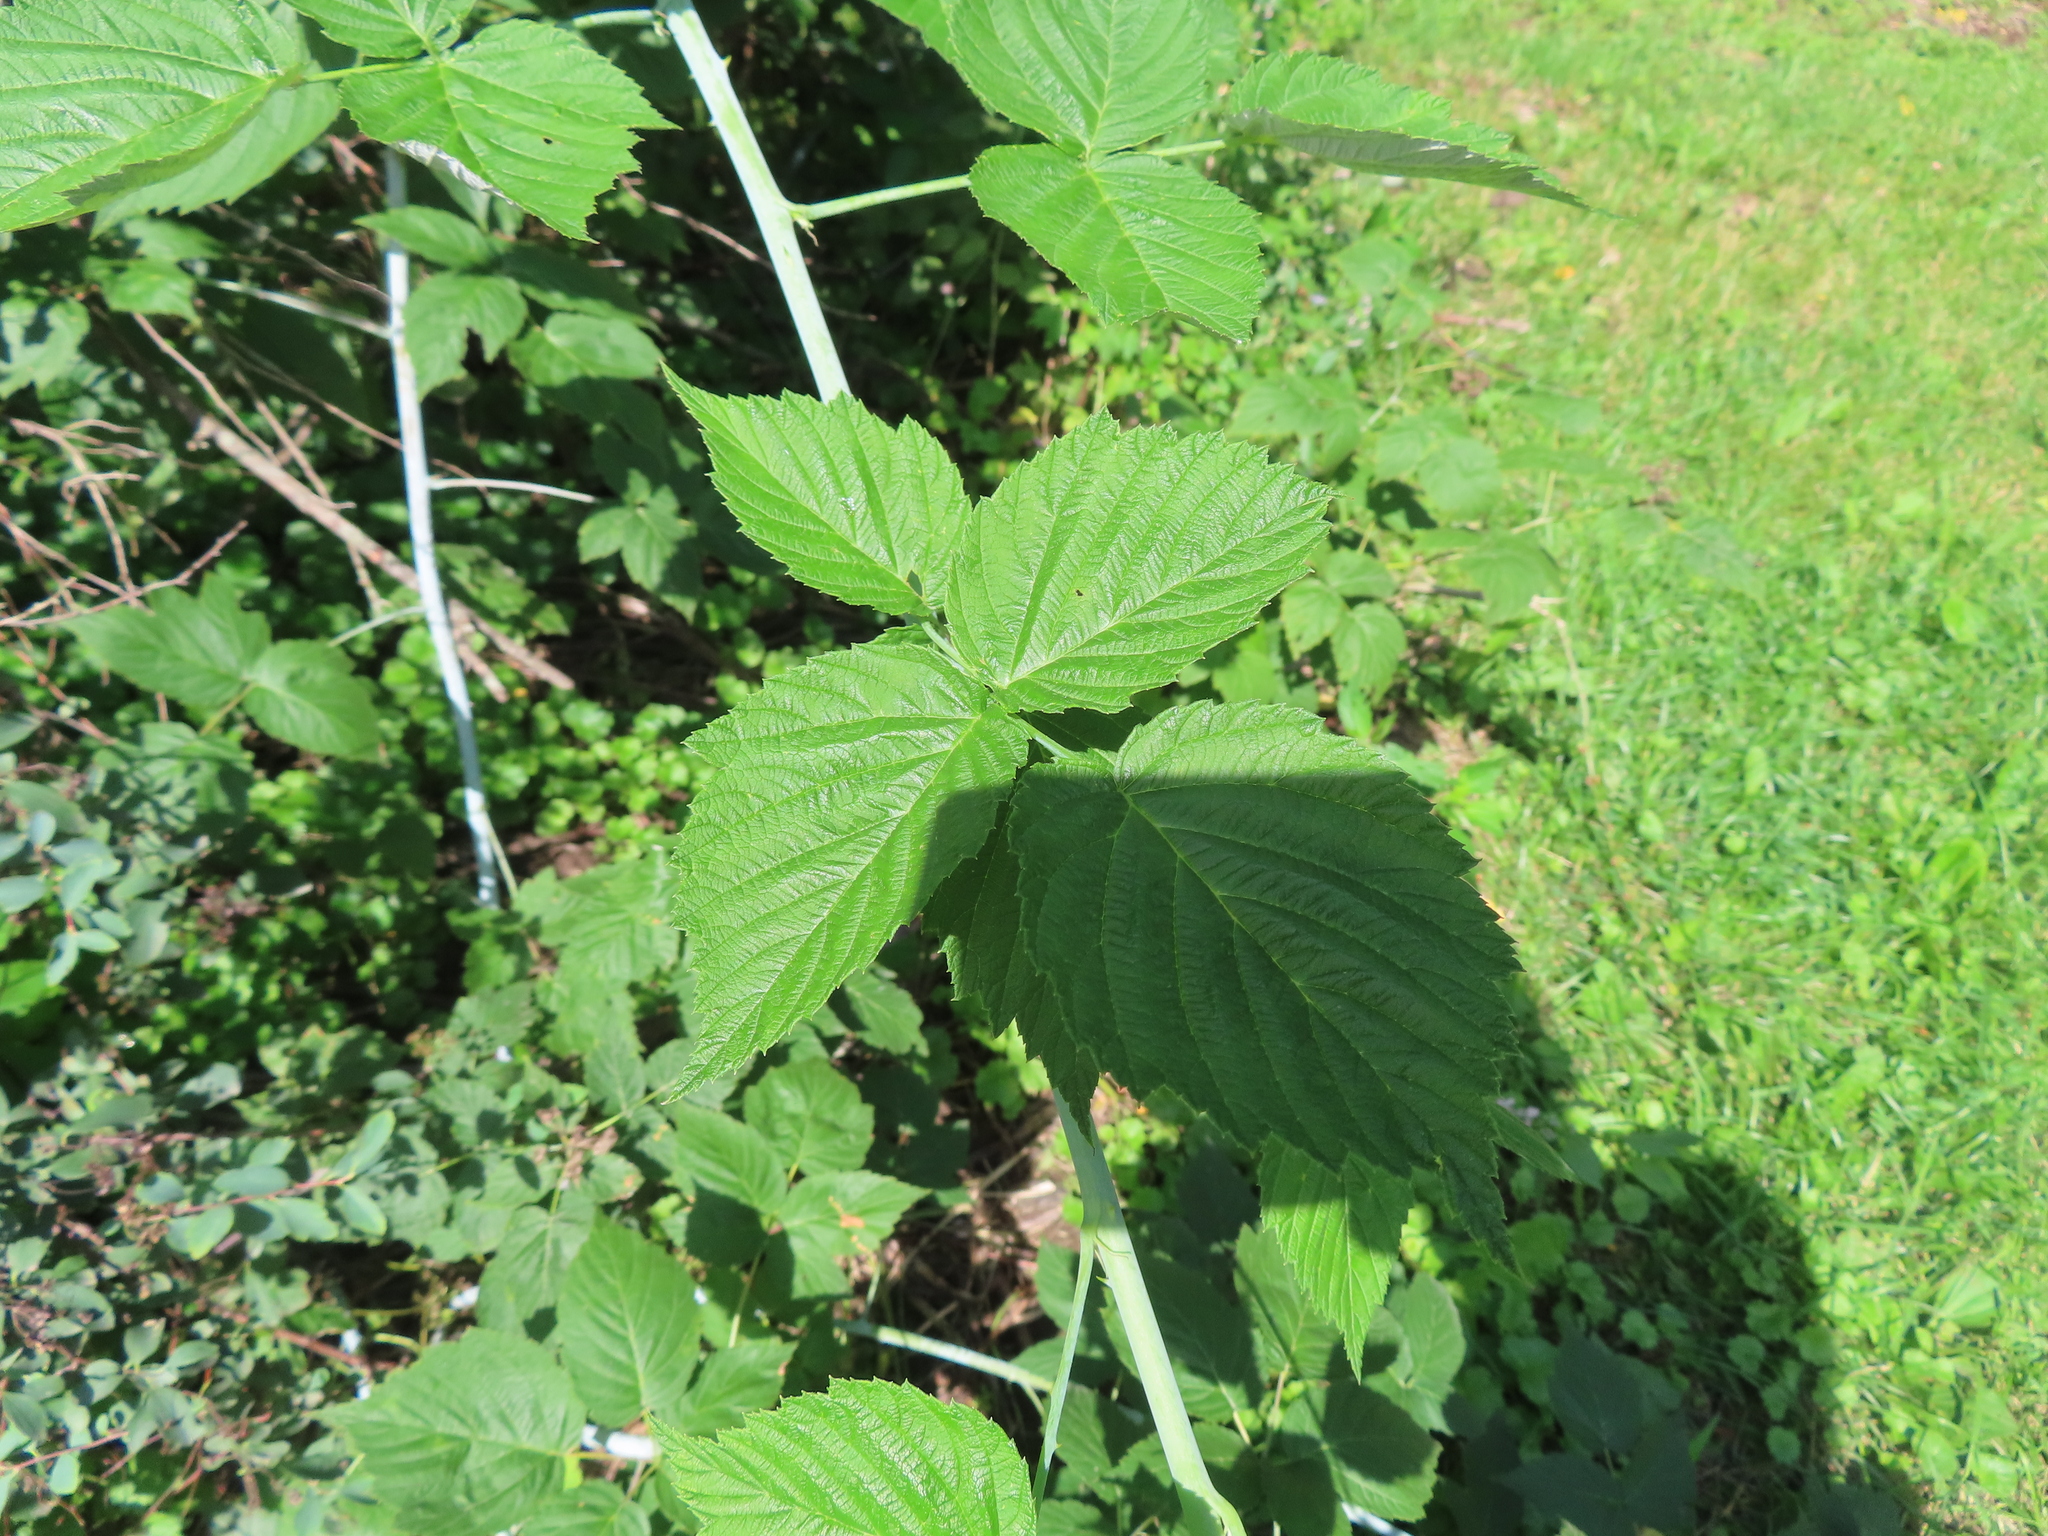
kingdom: Plantae
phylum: Tracheophyta
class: Magnoliopsida
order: Rosales
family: Rosaceae
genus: Rubus
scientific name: Rubus occidentalis
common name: Black raspberry
